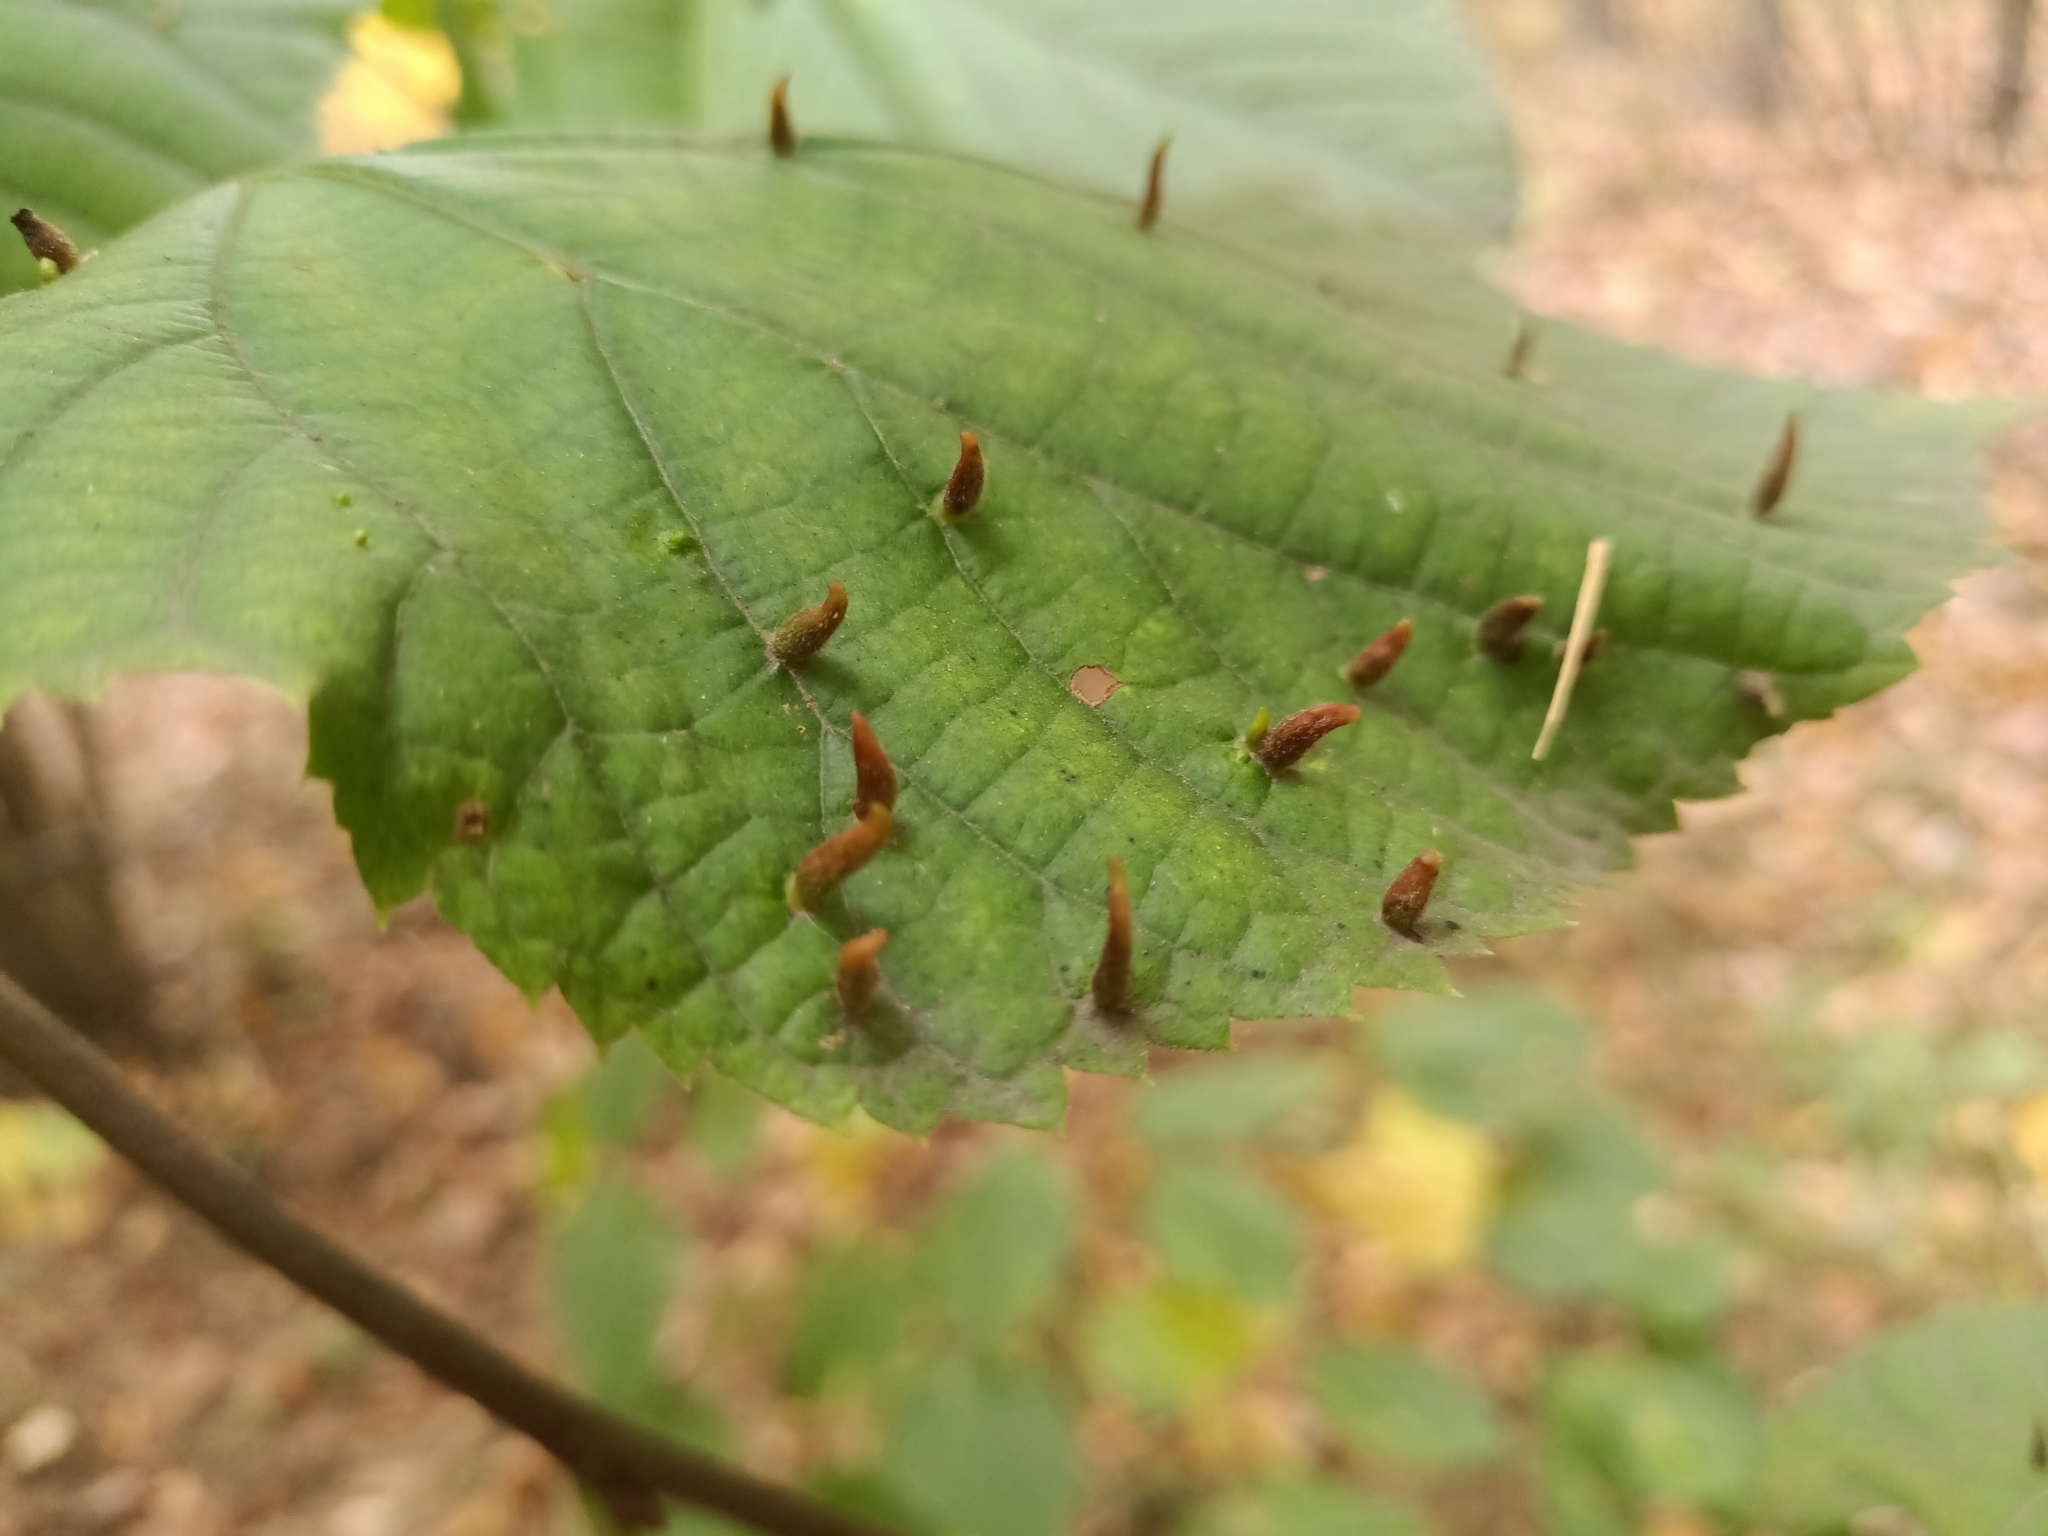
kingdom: Animalia
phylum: Arthropoda
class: Arachnida
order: Trombidiformes
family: Eriophyidae
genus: Eriophyes
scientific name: Eriophyes tiliae
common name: Red nail gall mite
